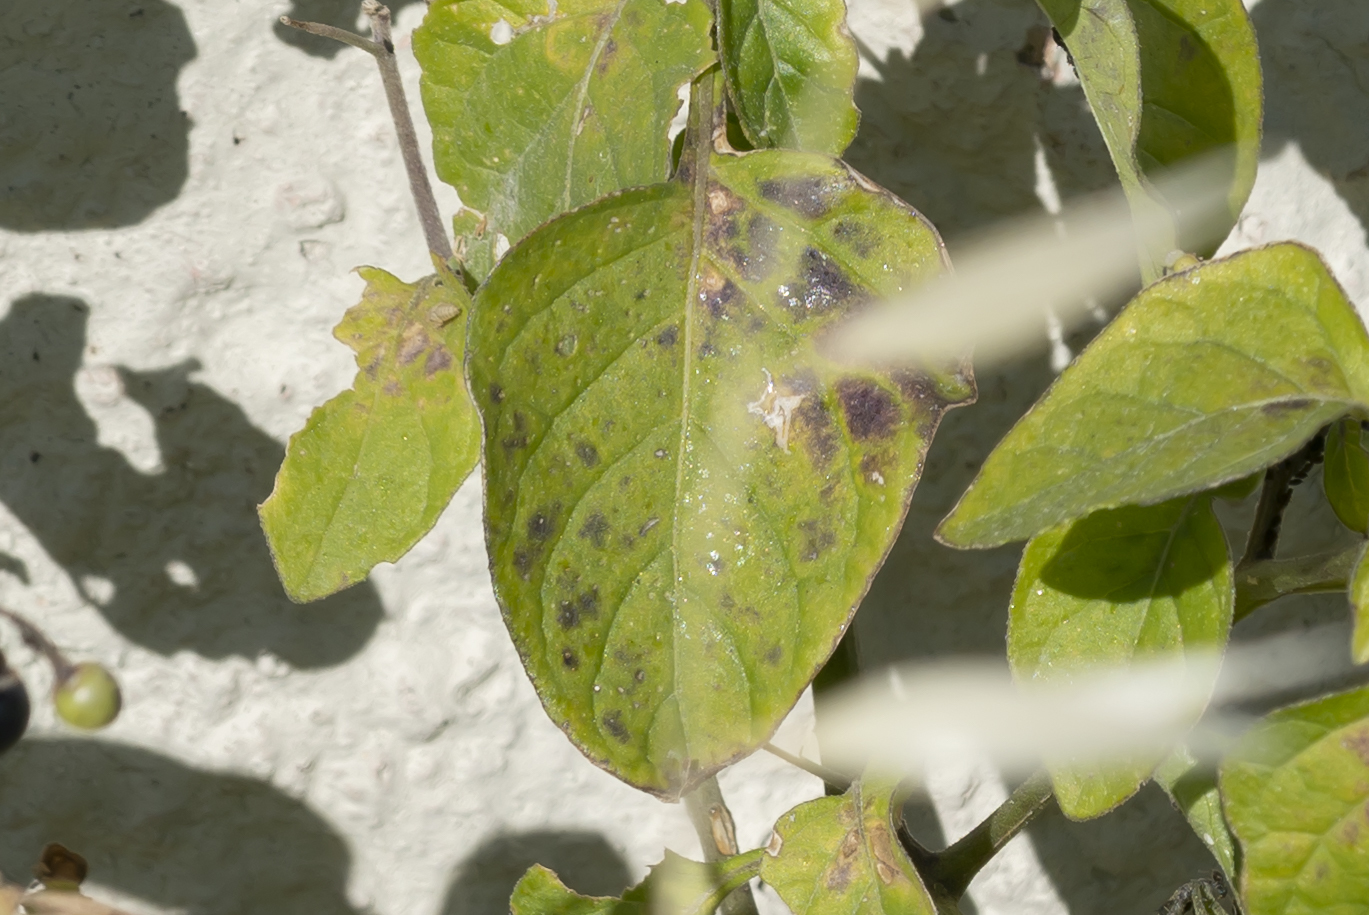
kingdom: Plantae
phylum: Tracheophyta
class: Magnoliopsida
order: Solanales
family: Solanaceae
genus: Solanum
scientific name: Solanum nigrum
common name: Black nightshade
